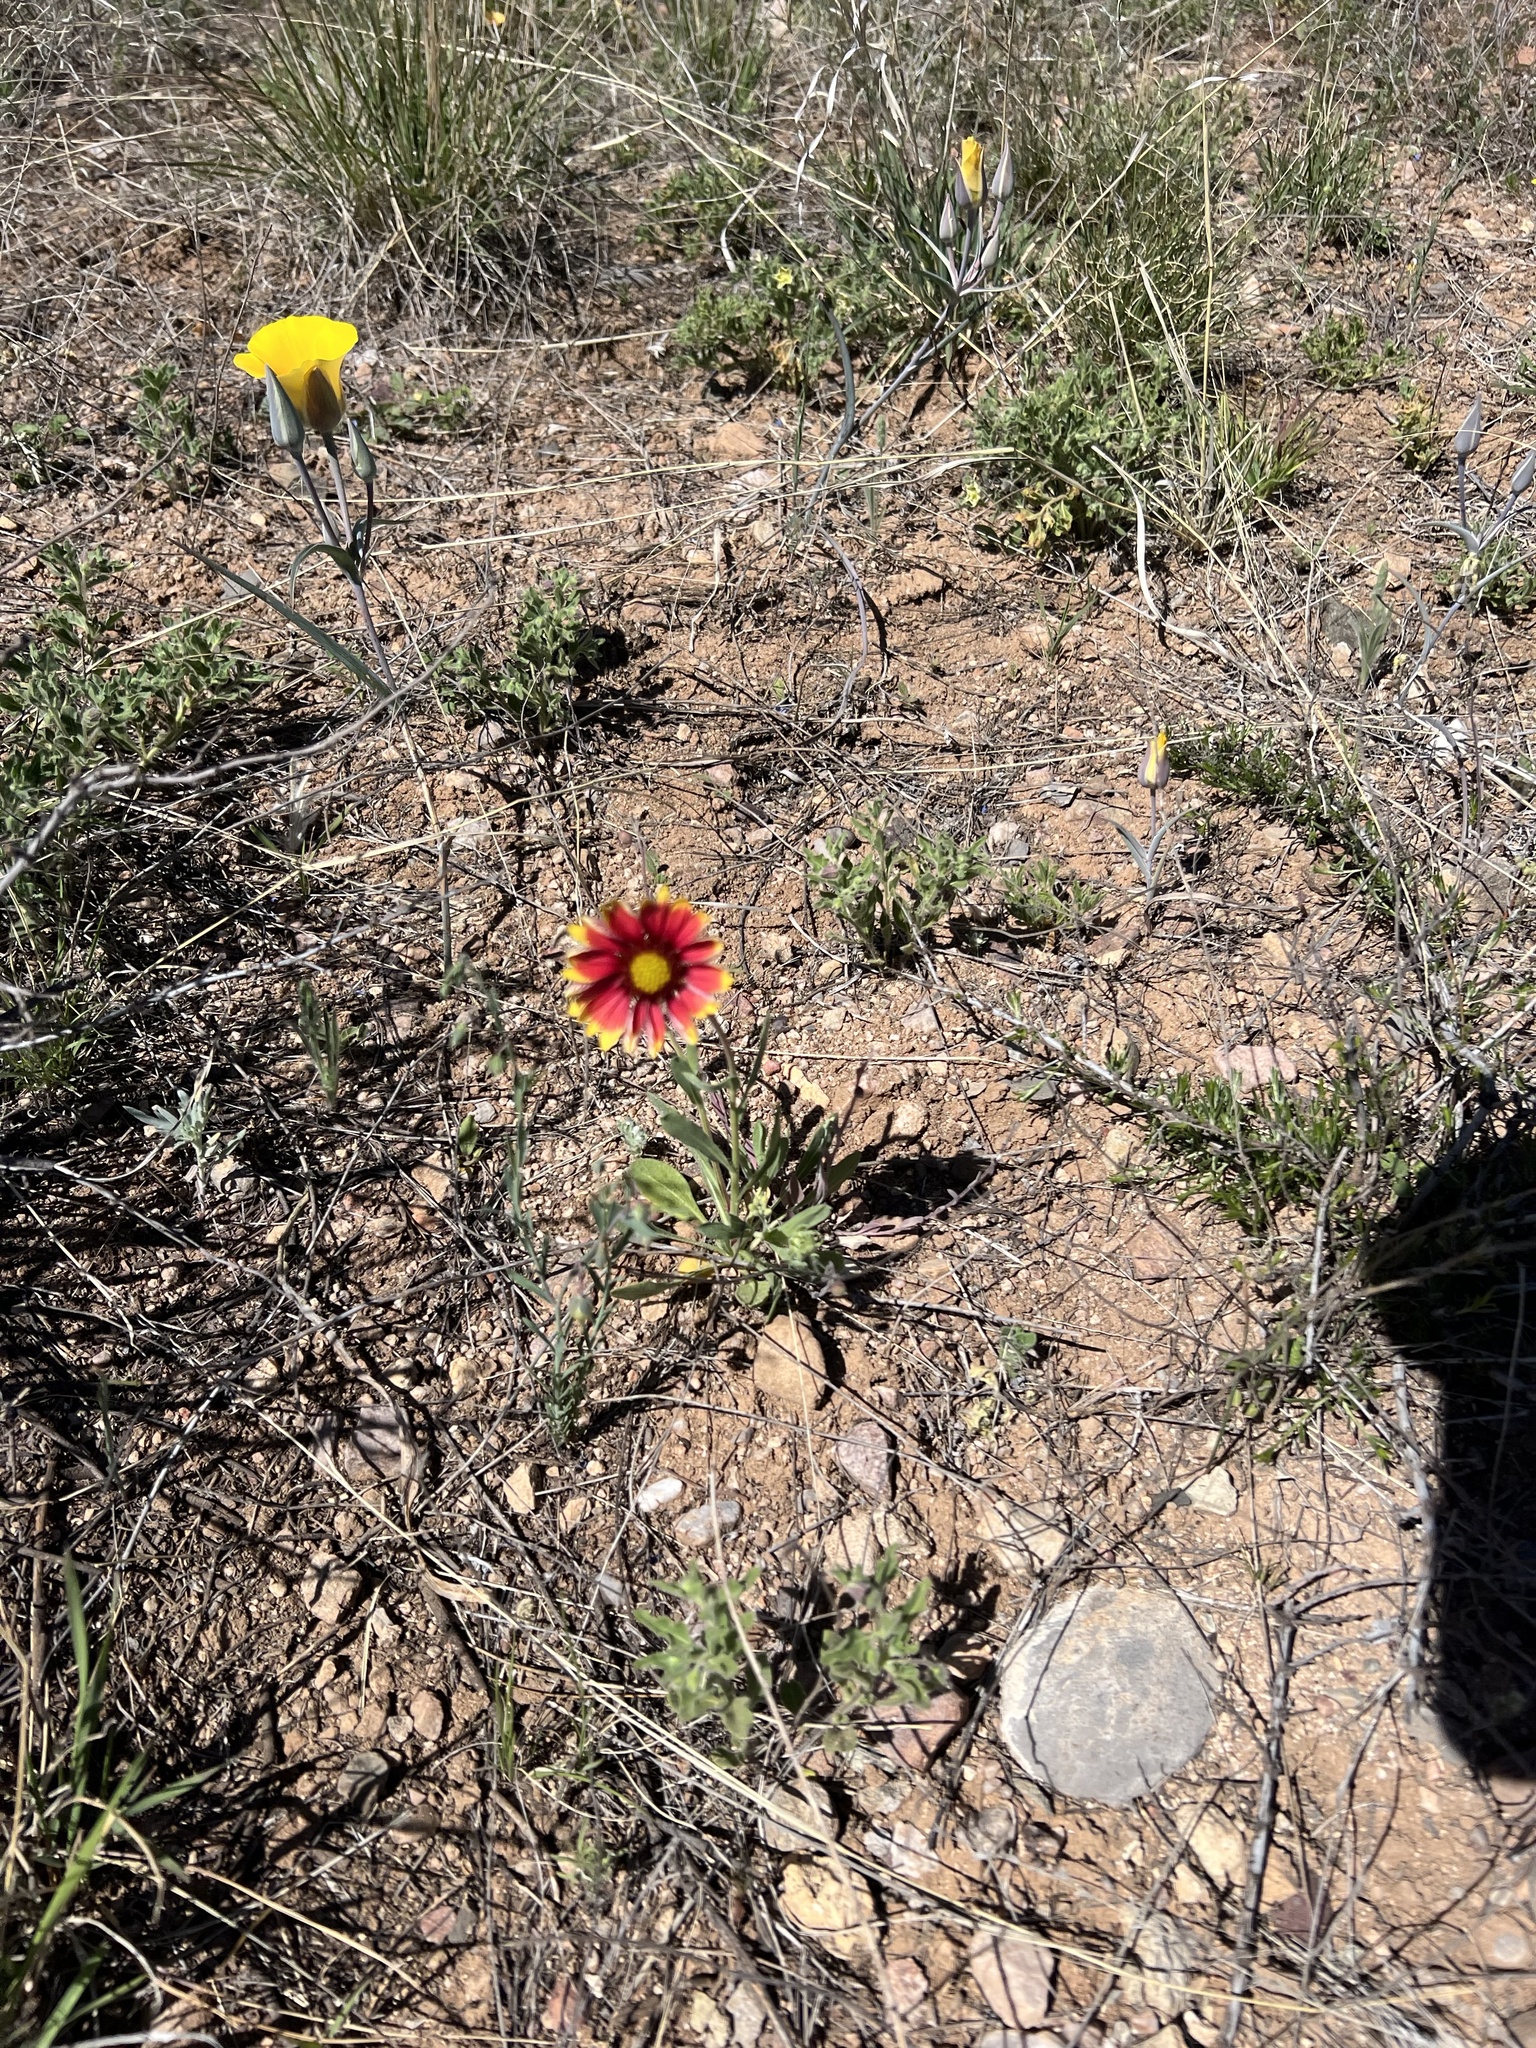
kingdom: Plantae
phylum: Tracheophyta
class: Magnoliopsida
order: Asterales
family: Asteraceae
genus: Gaillardia
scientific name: Gaillardia pulchella
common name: Firewheel
